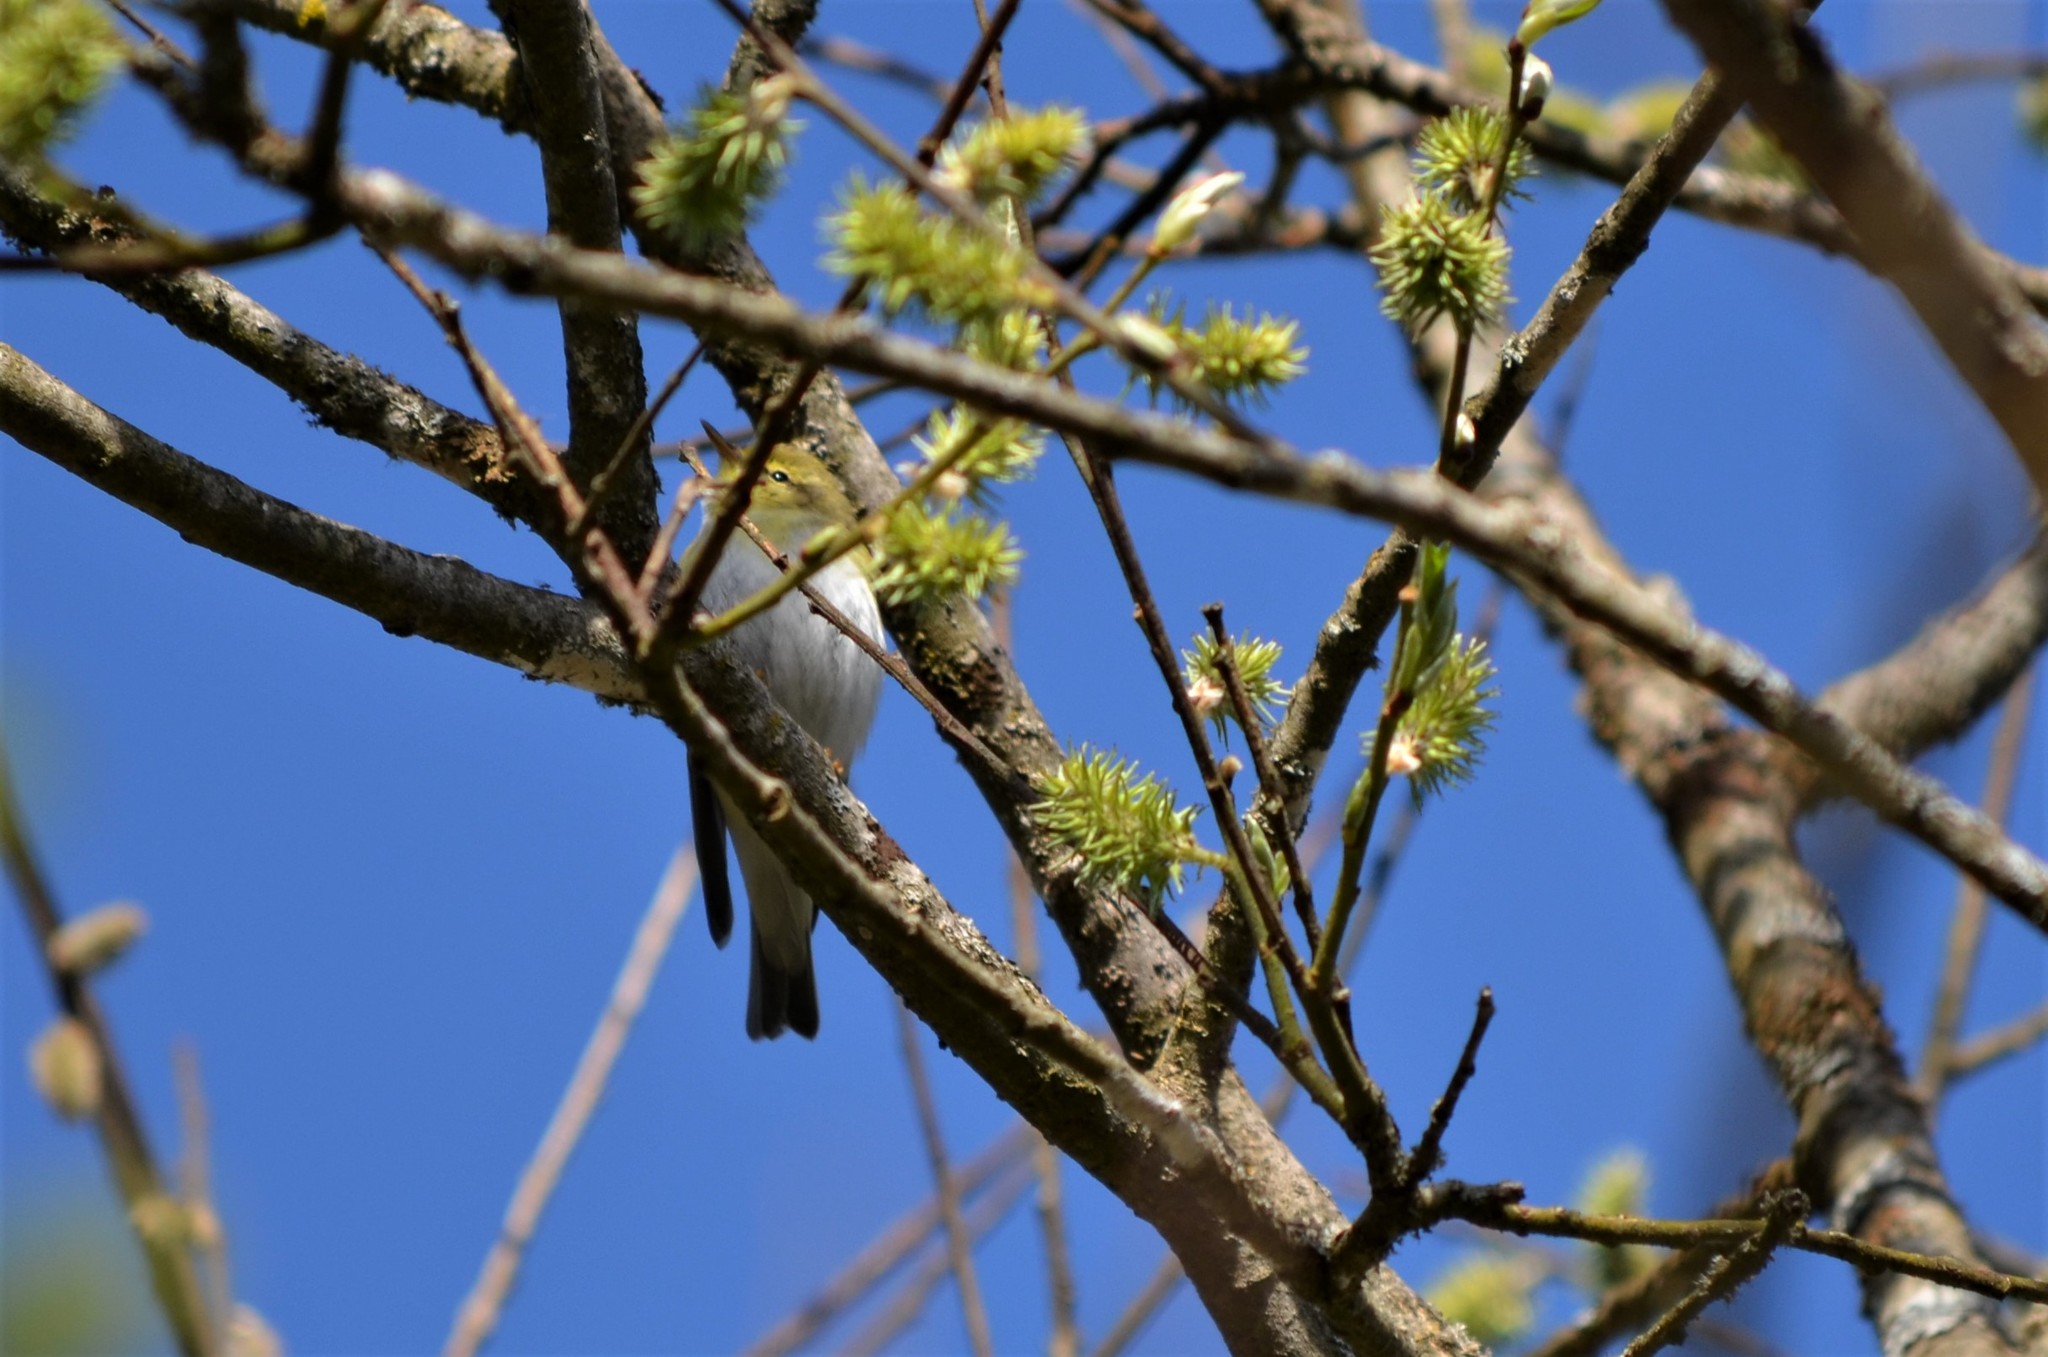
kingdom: Animalia
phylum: Chordata
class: Aves
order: Passeriformes
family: Phylloscopidae
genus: Phylloscopus
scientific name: Phylloscopus sibillatrix
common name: Wood warbler
